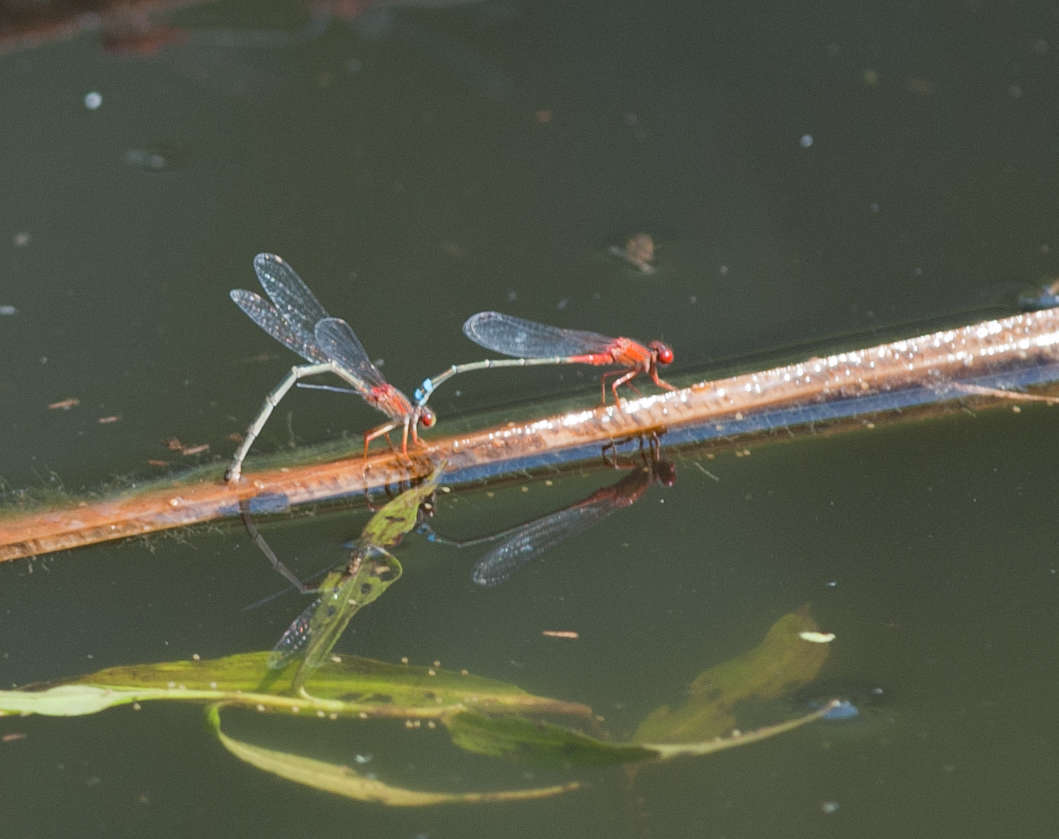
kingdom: Animalia
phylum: Arthropoda
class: Insecta
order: Odonata
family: Coenagrionidae
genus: Xanthagrion
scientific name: Xanthagrion erythroneurum
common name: Red and blue damsel
